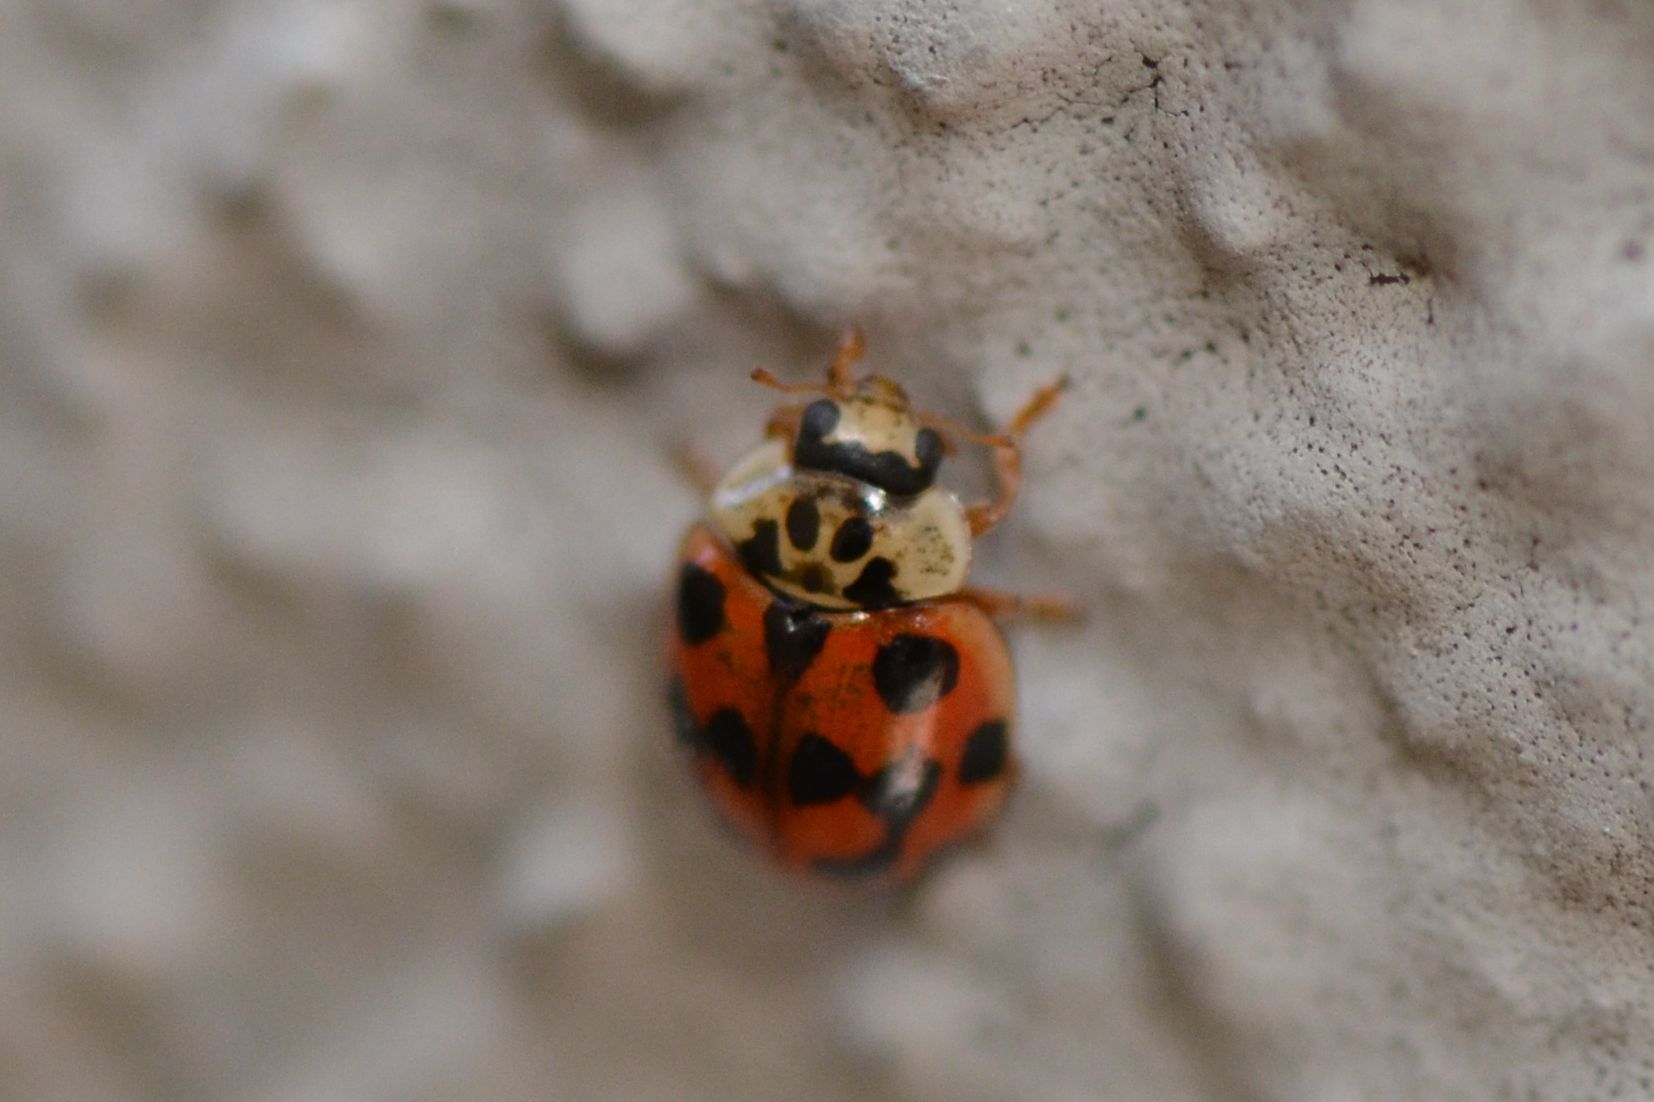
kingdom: Animalia
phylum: Arthropoda
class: Insecta
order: Coleoptera
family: Coccinellidae
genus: Adalia
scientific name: Adalia decempunctata
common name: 10-spot ladybird
